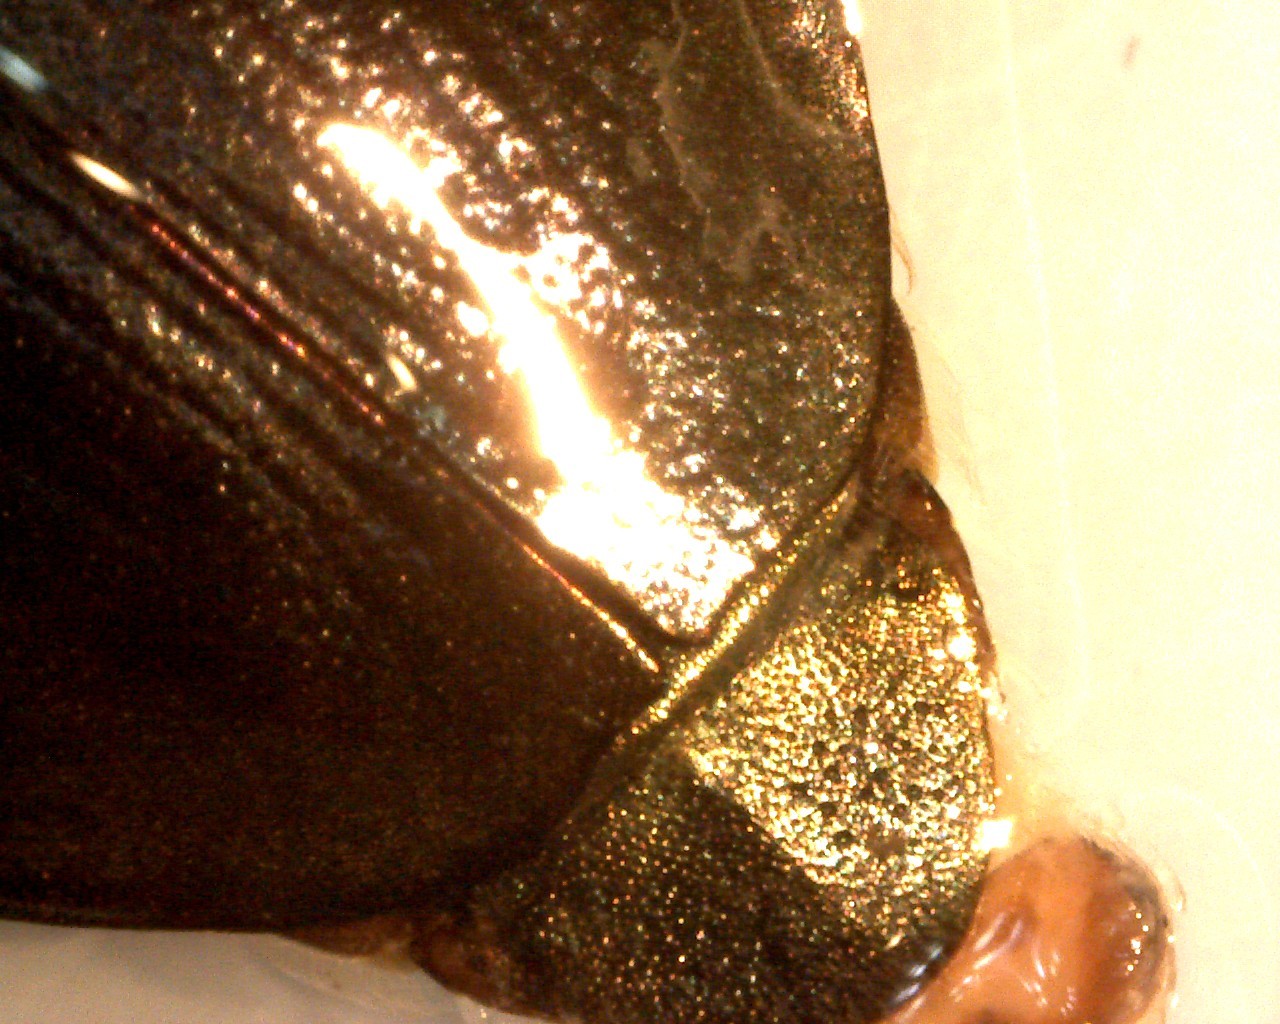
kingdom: Animalia
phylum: Arthropoda
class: Insecta
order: Coleoptera
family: Gyrinidae
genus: Dineutus
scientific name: Dineutus nigrior
